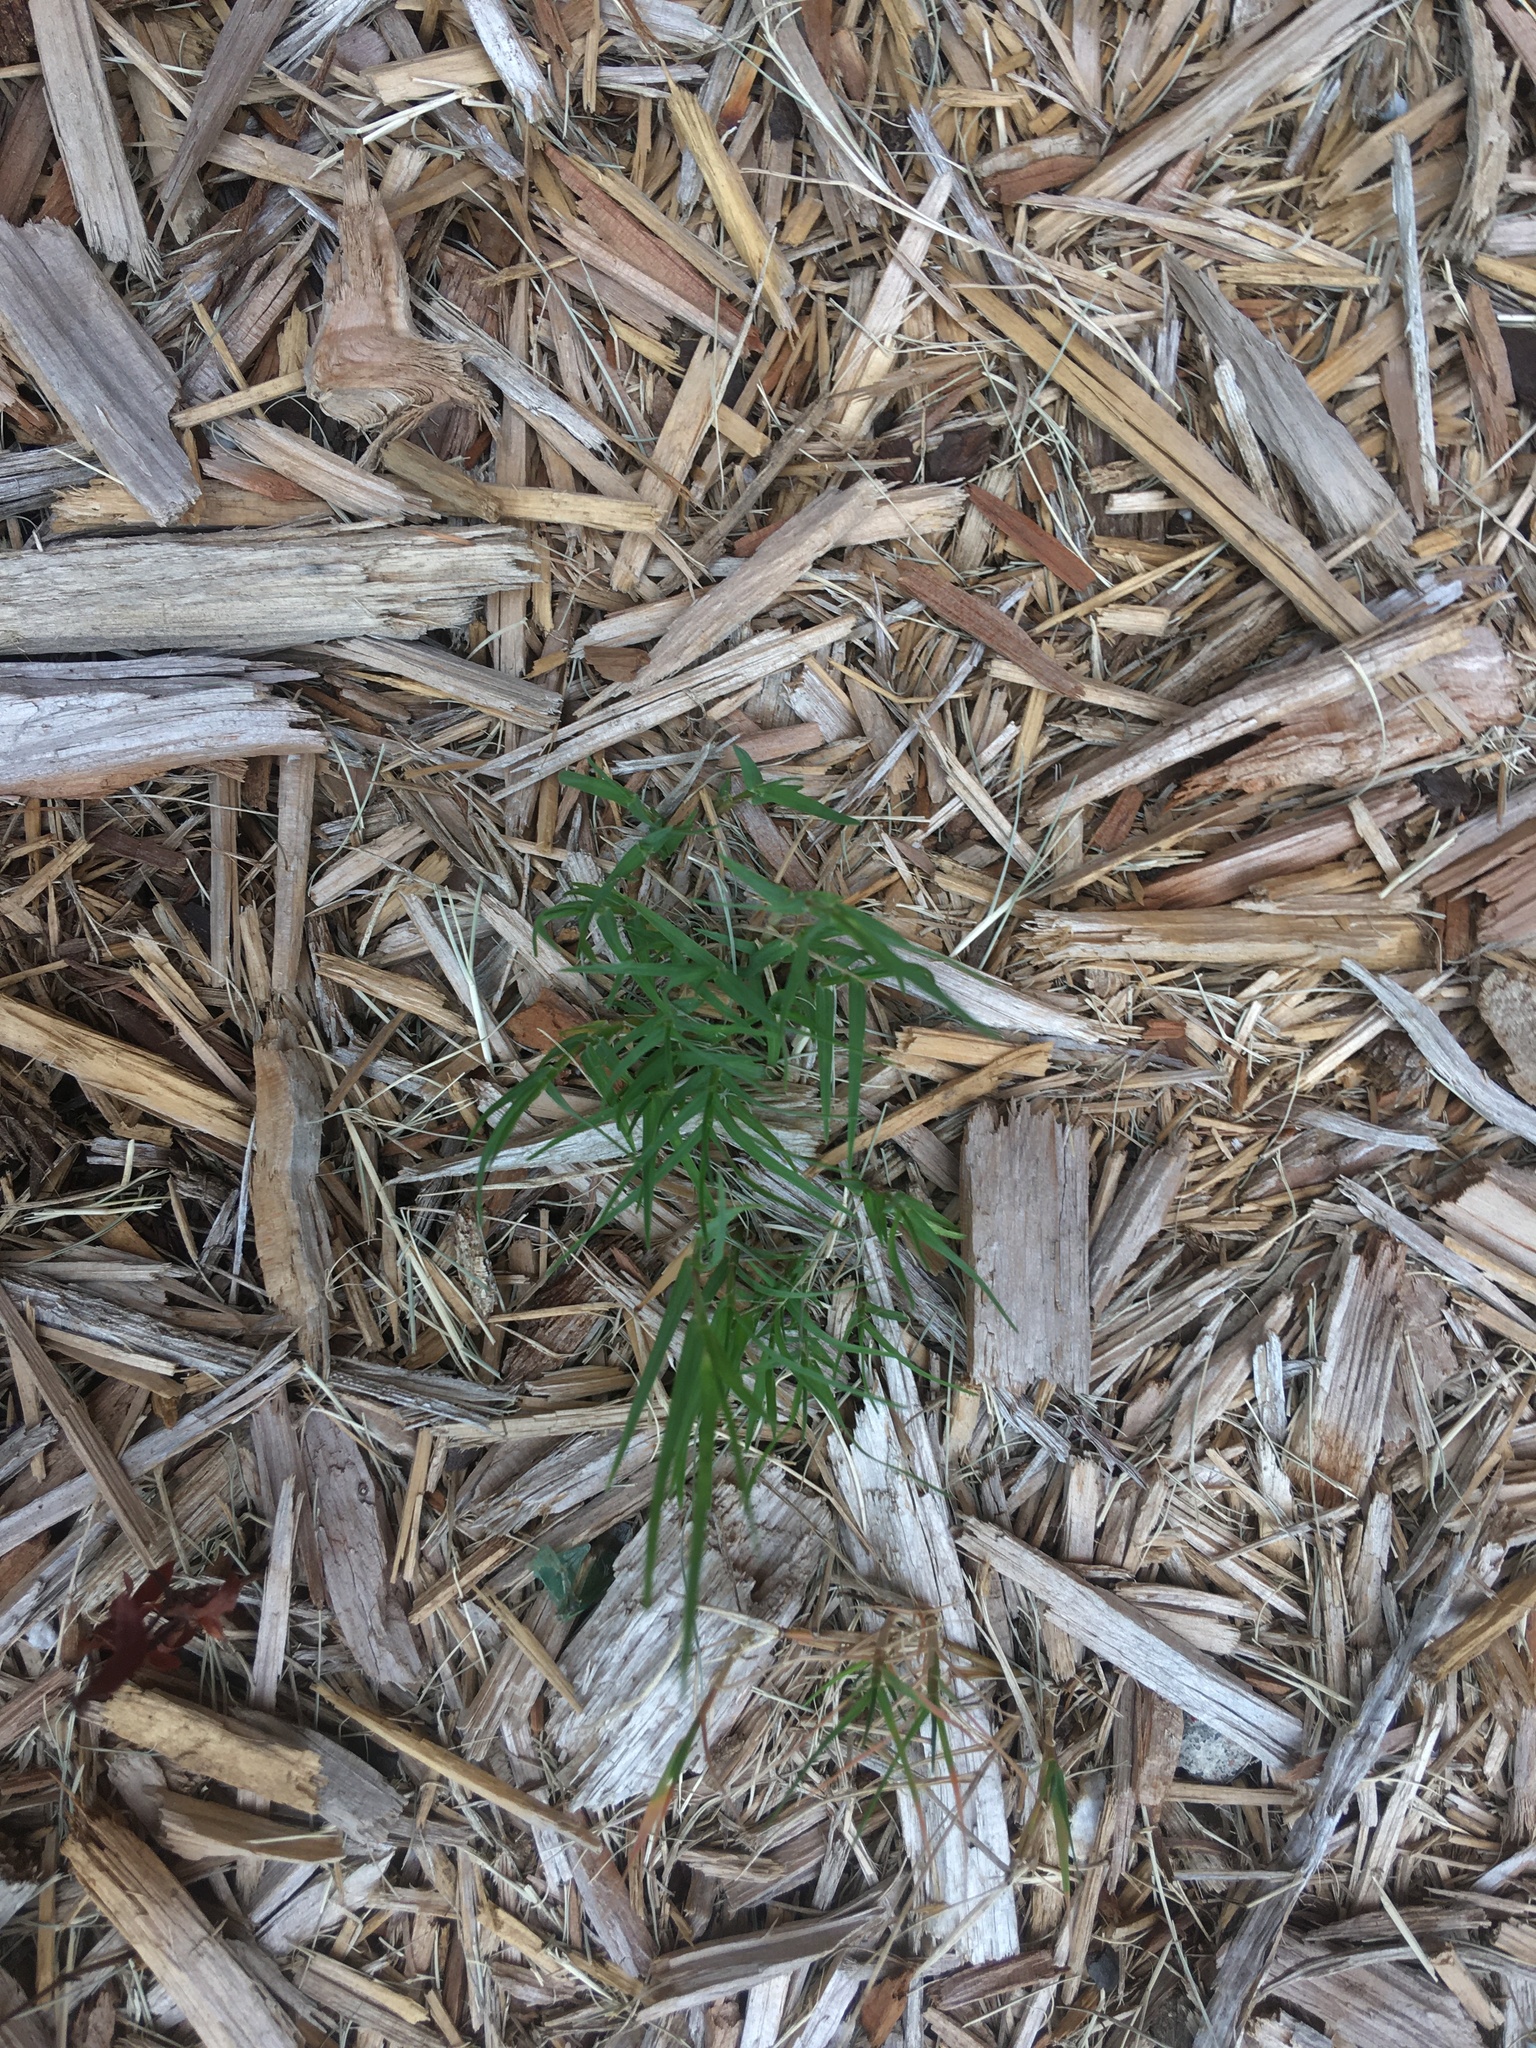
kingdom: Plantae
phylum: Tracheophyta
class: Liliopsida
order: Poales
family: Poaceae
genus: Cynodon
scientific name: Cynodon dactylon
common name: Bermuda grass
